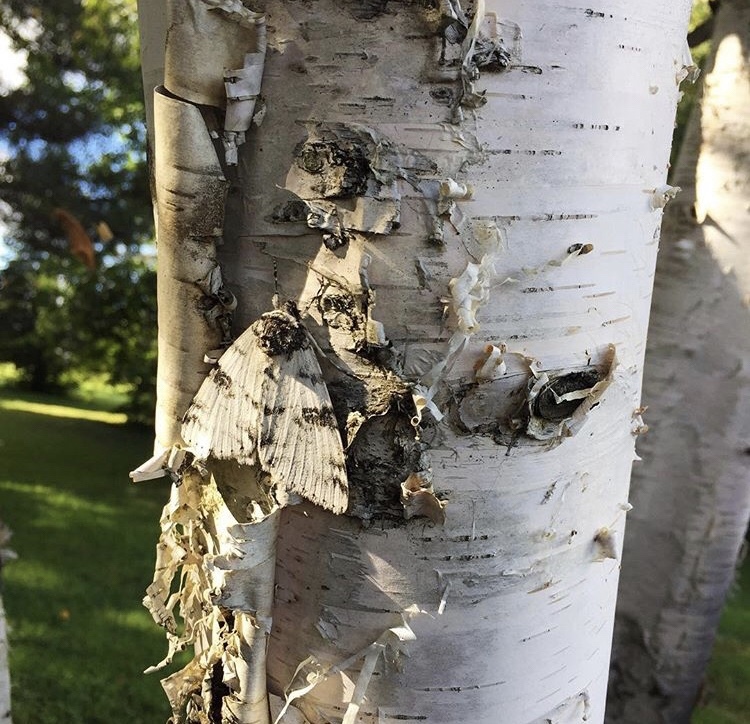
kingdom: Animalia
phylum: Arthropoda
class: Insecta
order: Lepidoptera
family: Erebidae
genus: Catocala
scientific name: Catocala relicta
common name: White underwing
